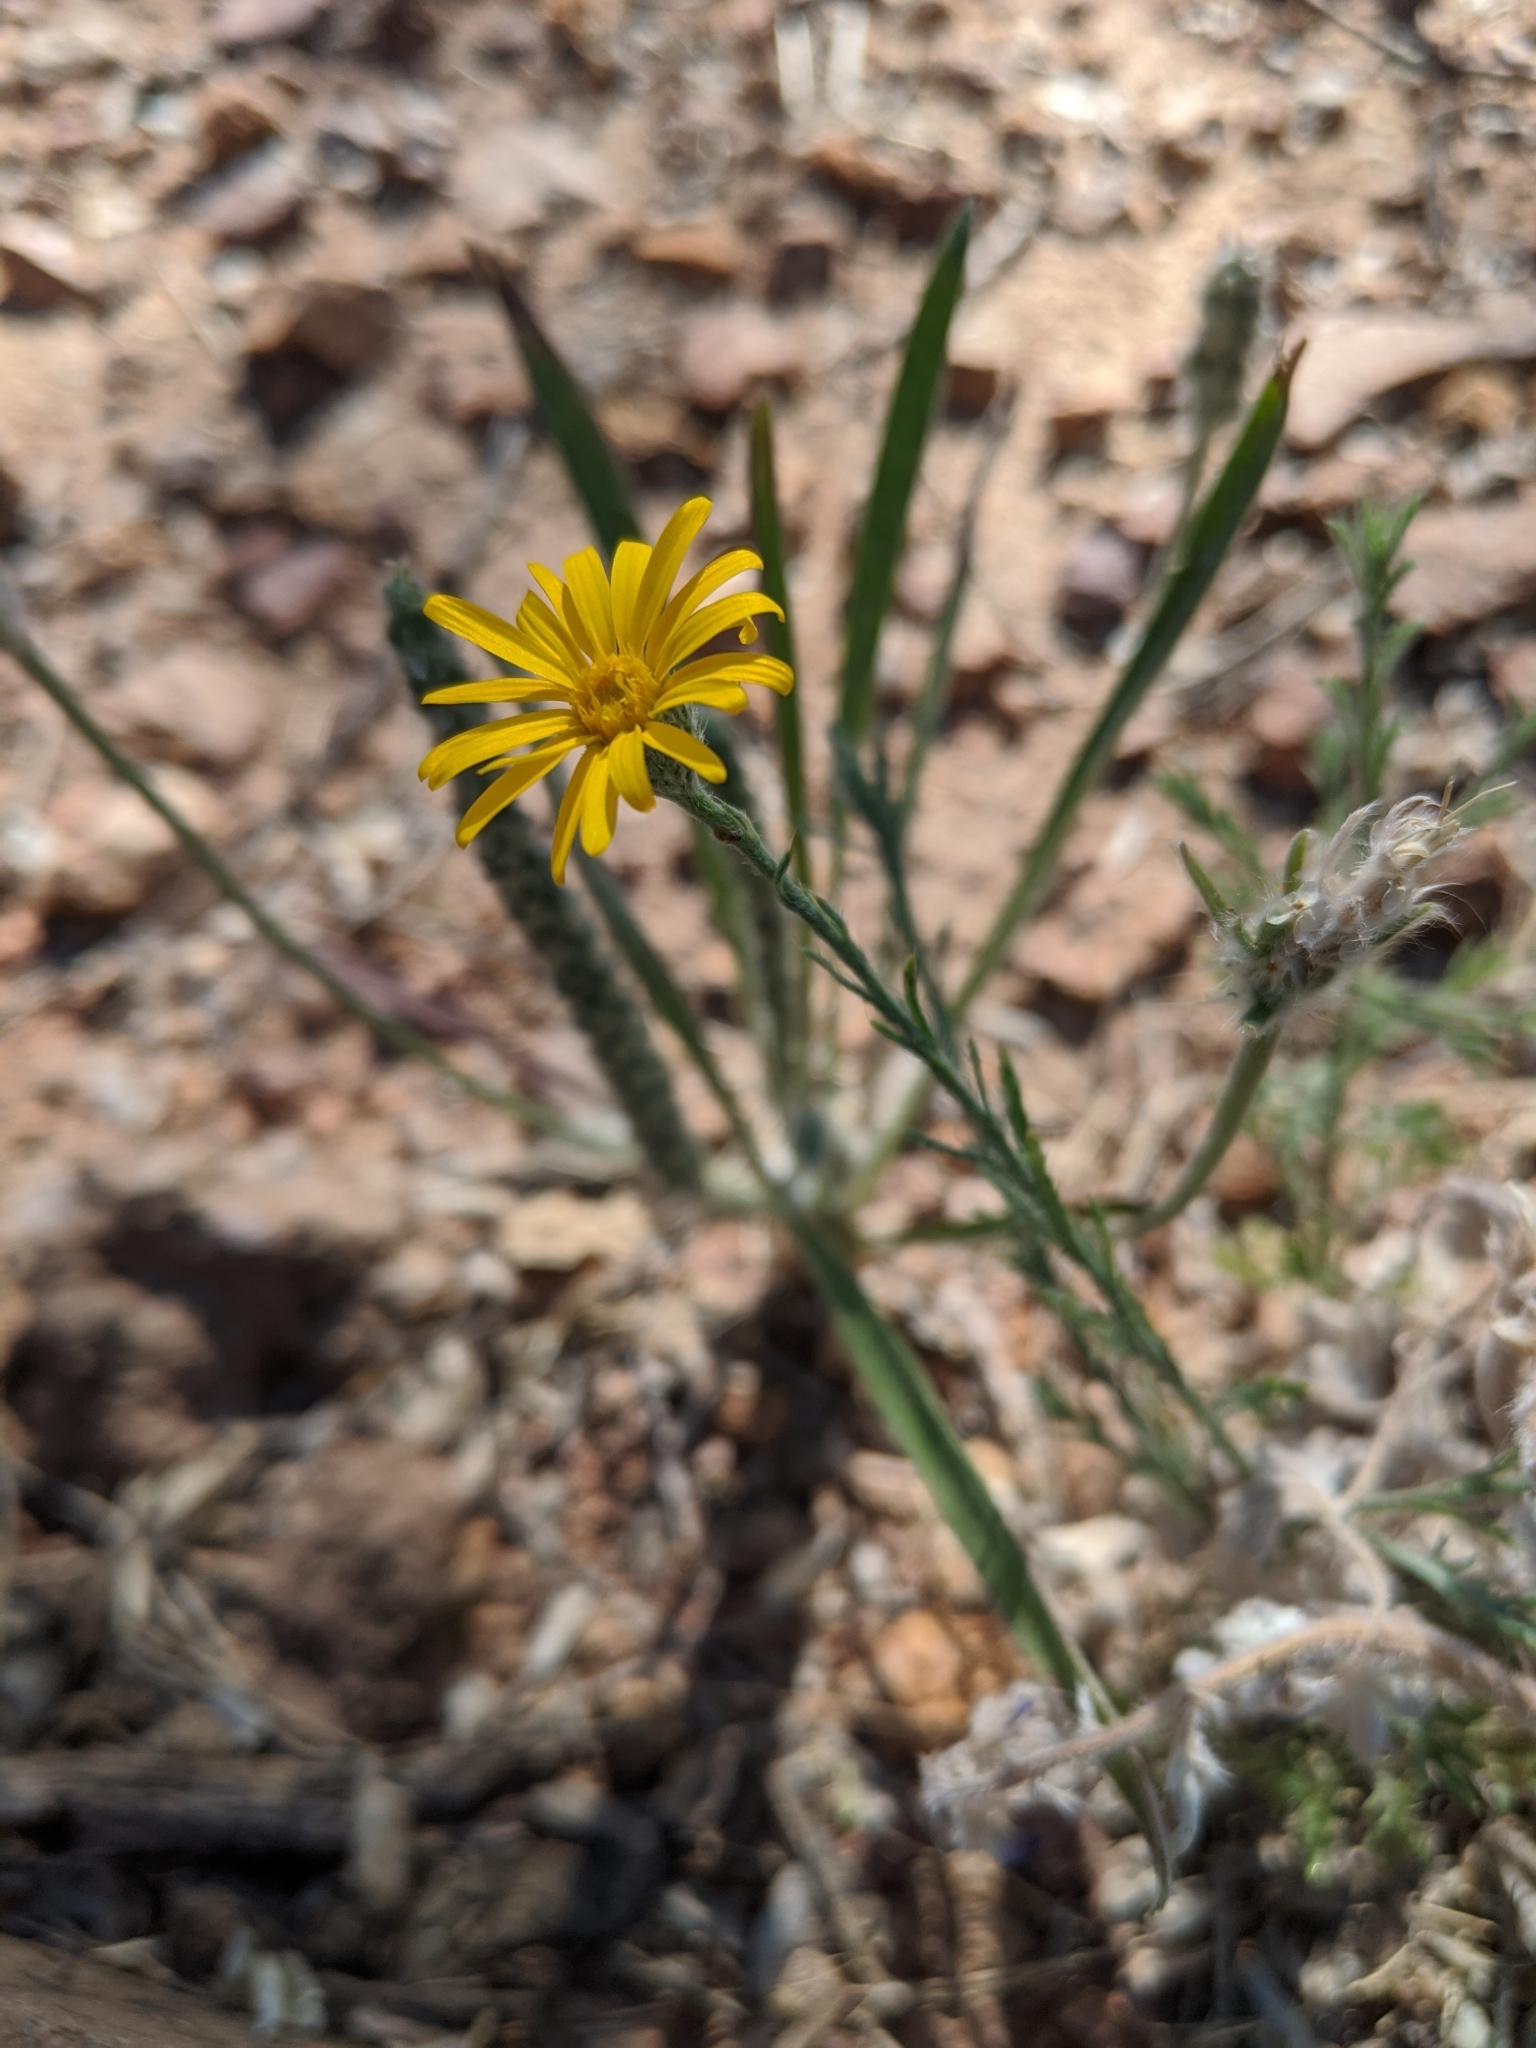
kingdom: Plantae
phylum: Tracheophyta
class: Magnoliopsida
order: Asterales
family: Asteraceae
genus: Xanthisma
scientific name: Xanthisma spinulosum
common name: Spiny goldenweed
